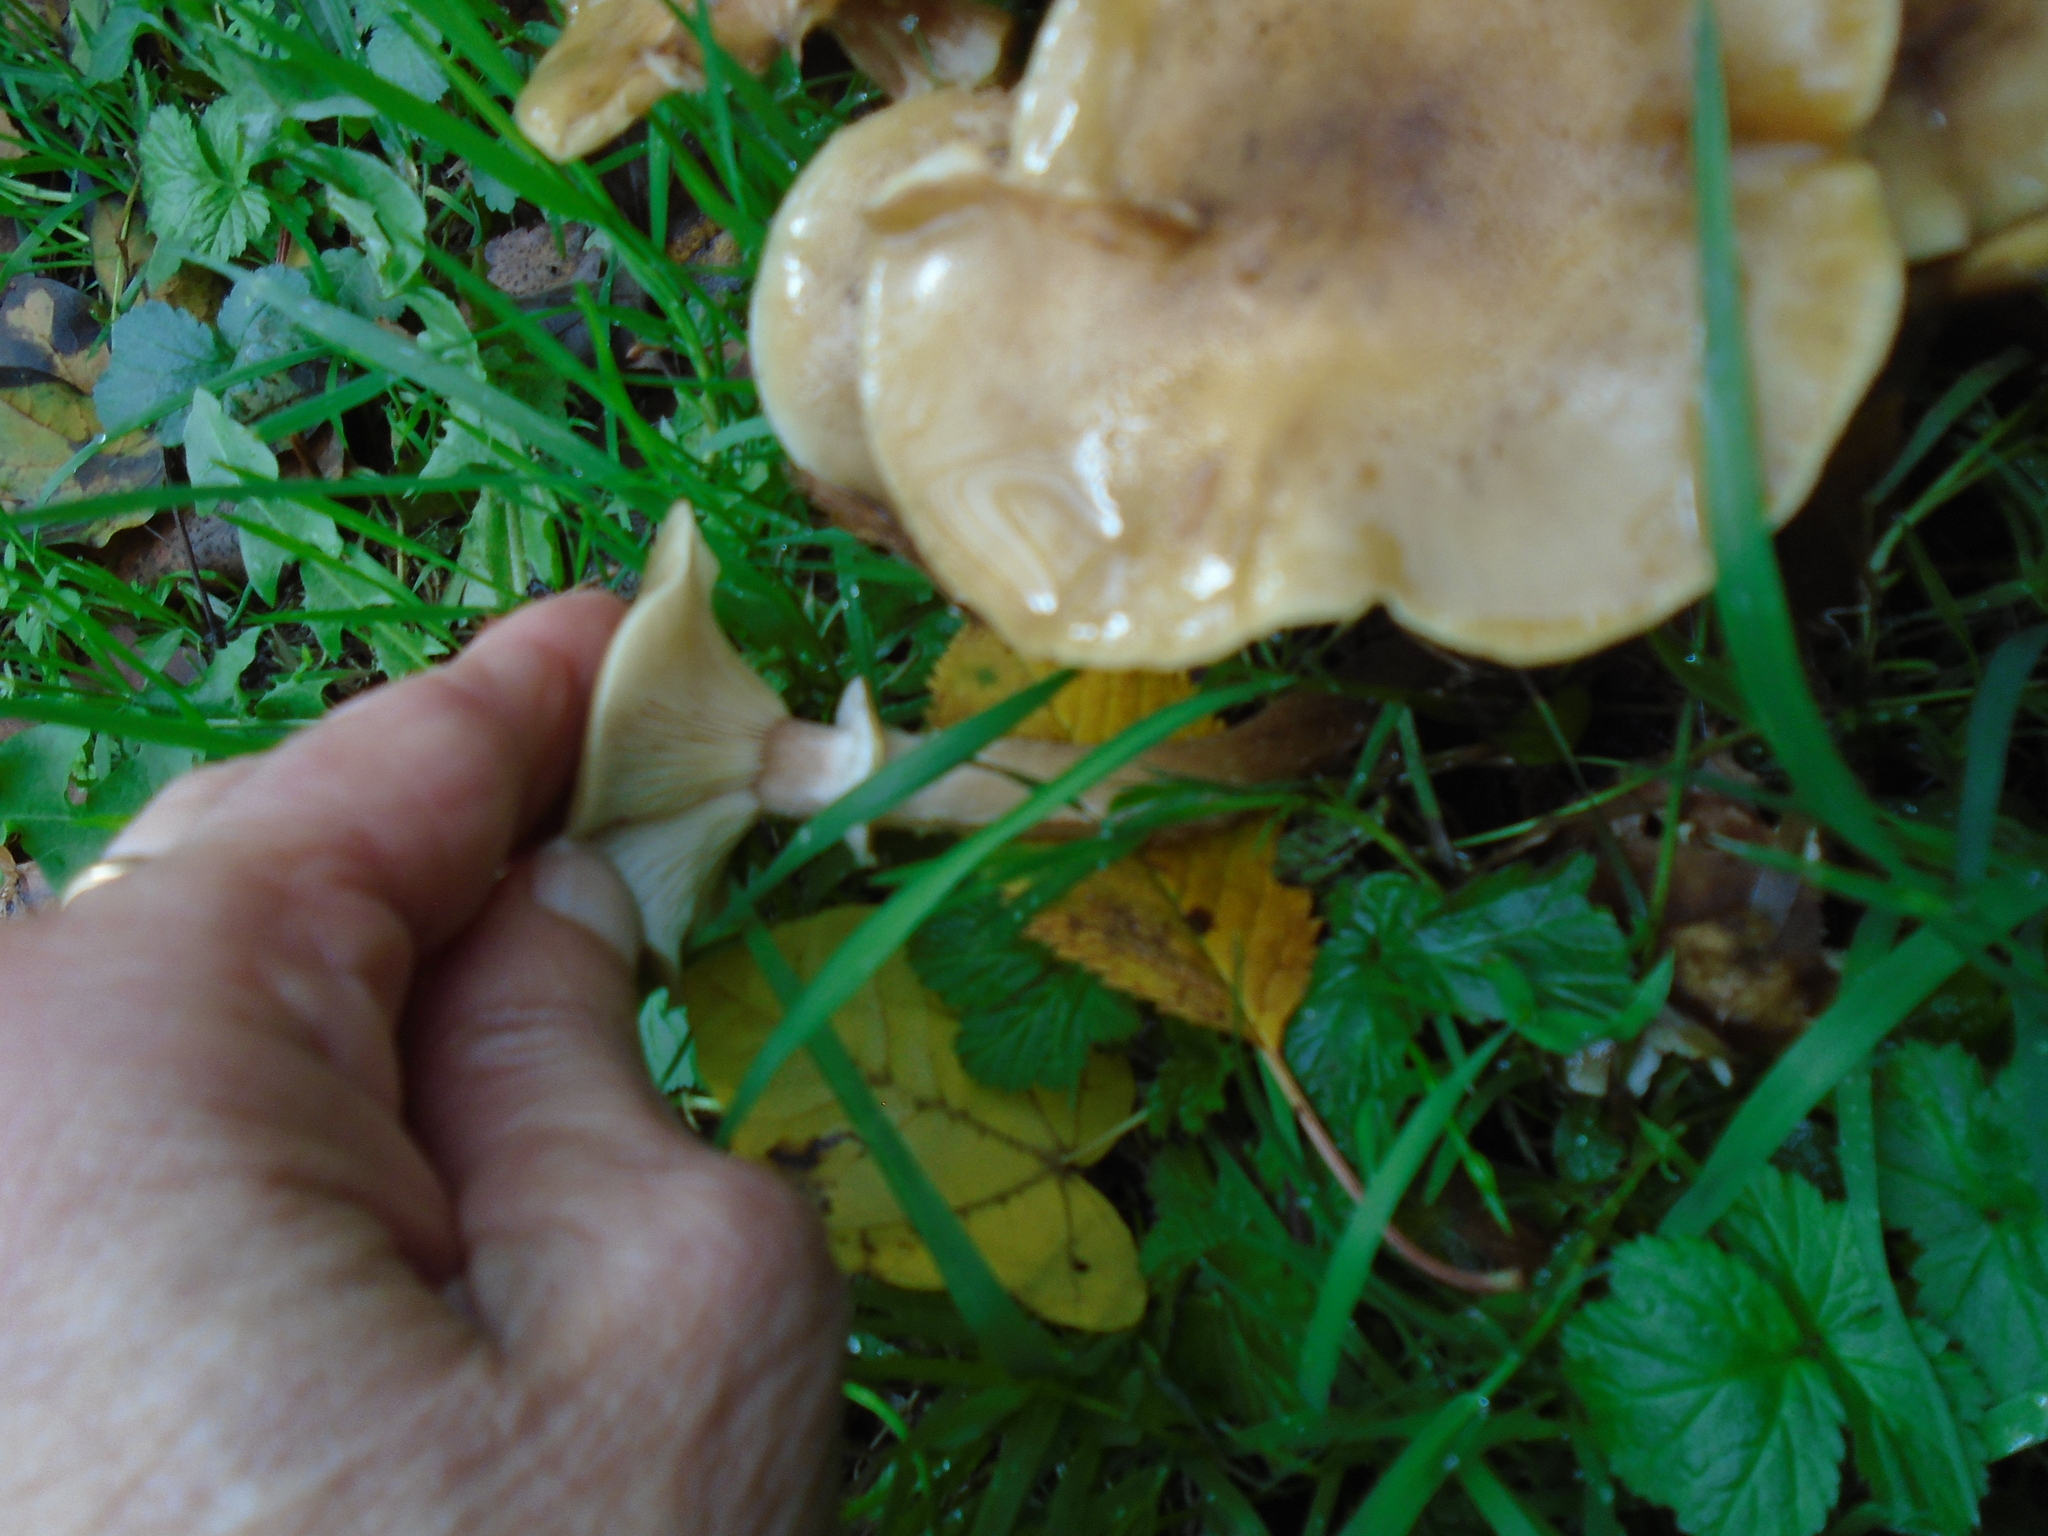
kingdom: Fungi
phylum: Basidiomycota
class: Agaricomycetes
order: Agaricales
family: Physalacriaceae
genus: Armillaria
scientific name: Armillaria mellea
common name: Honey fungus
